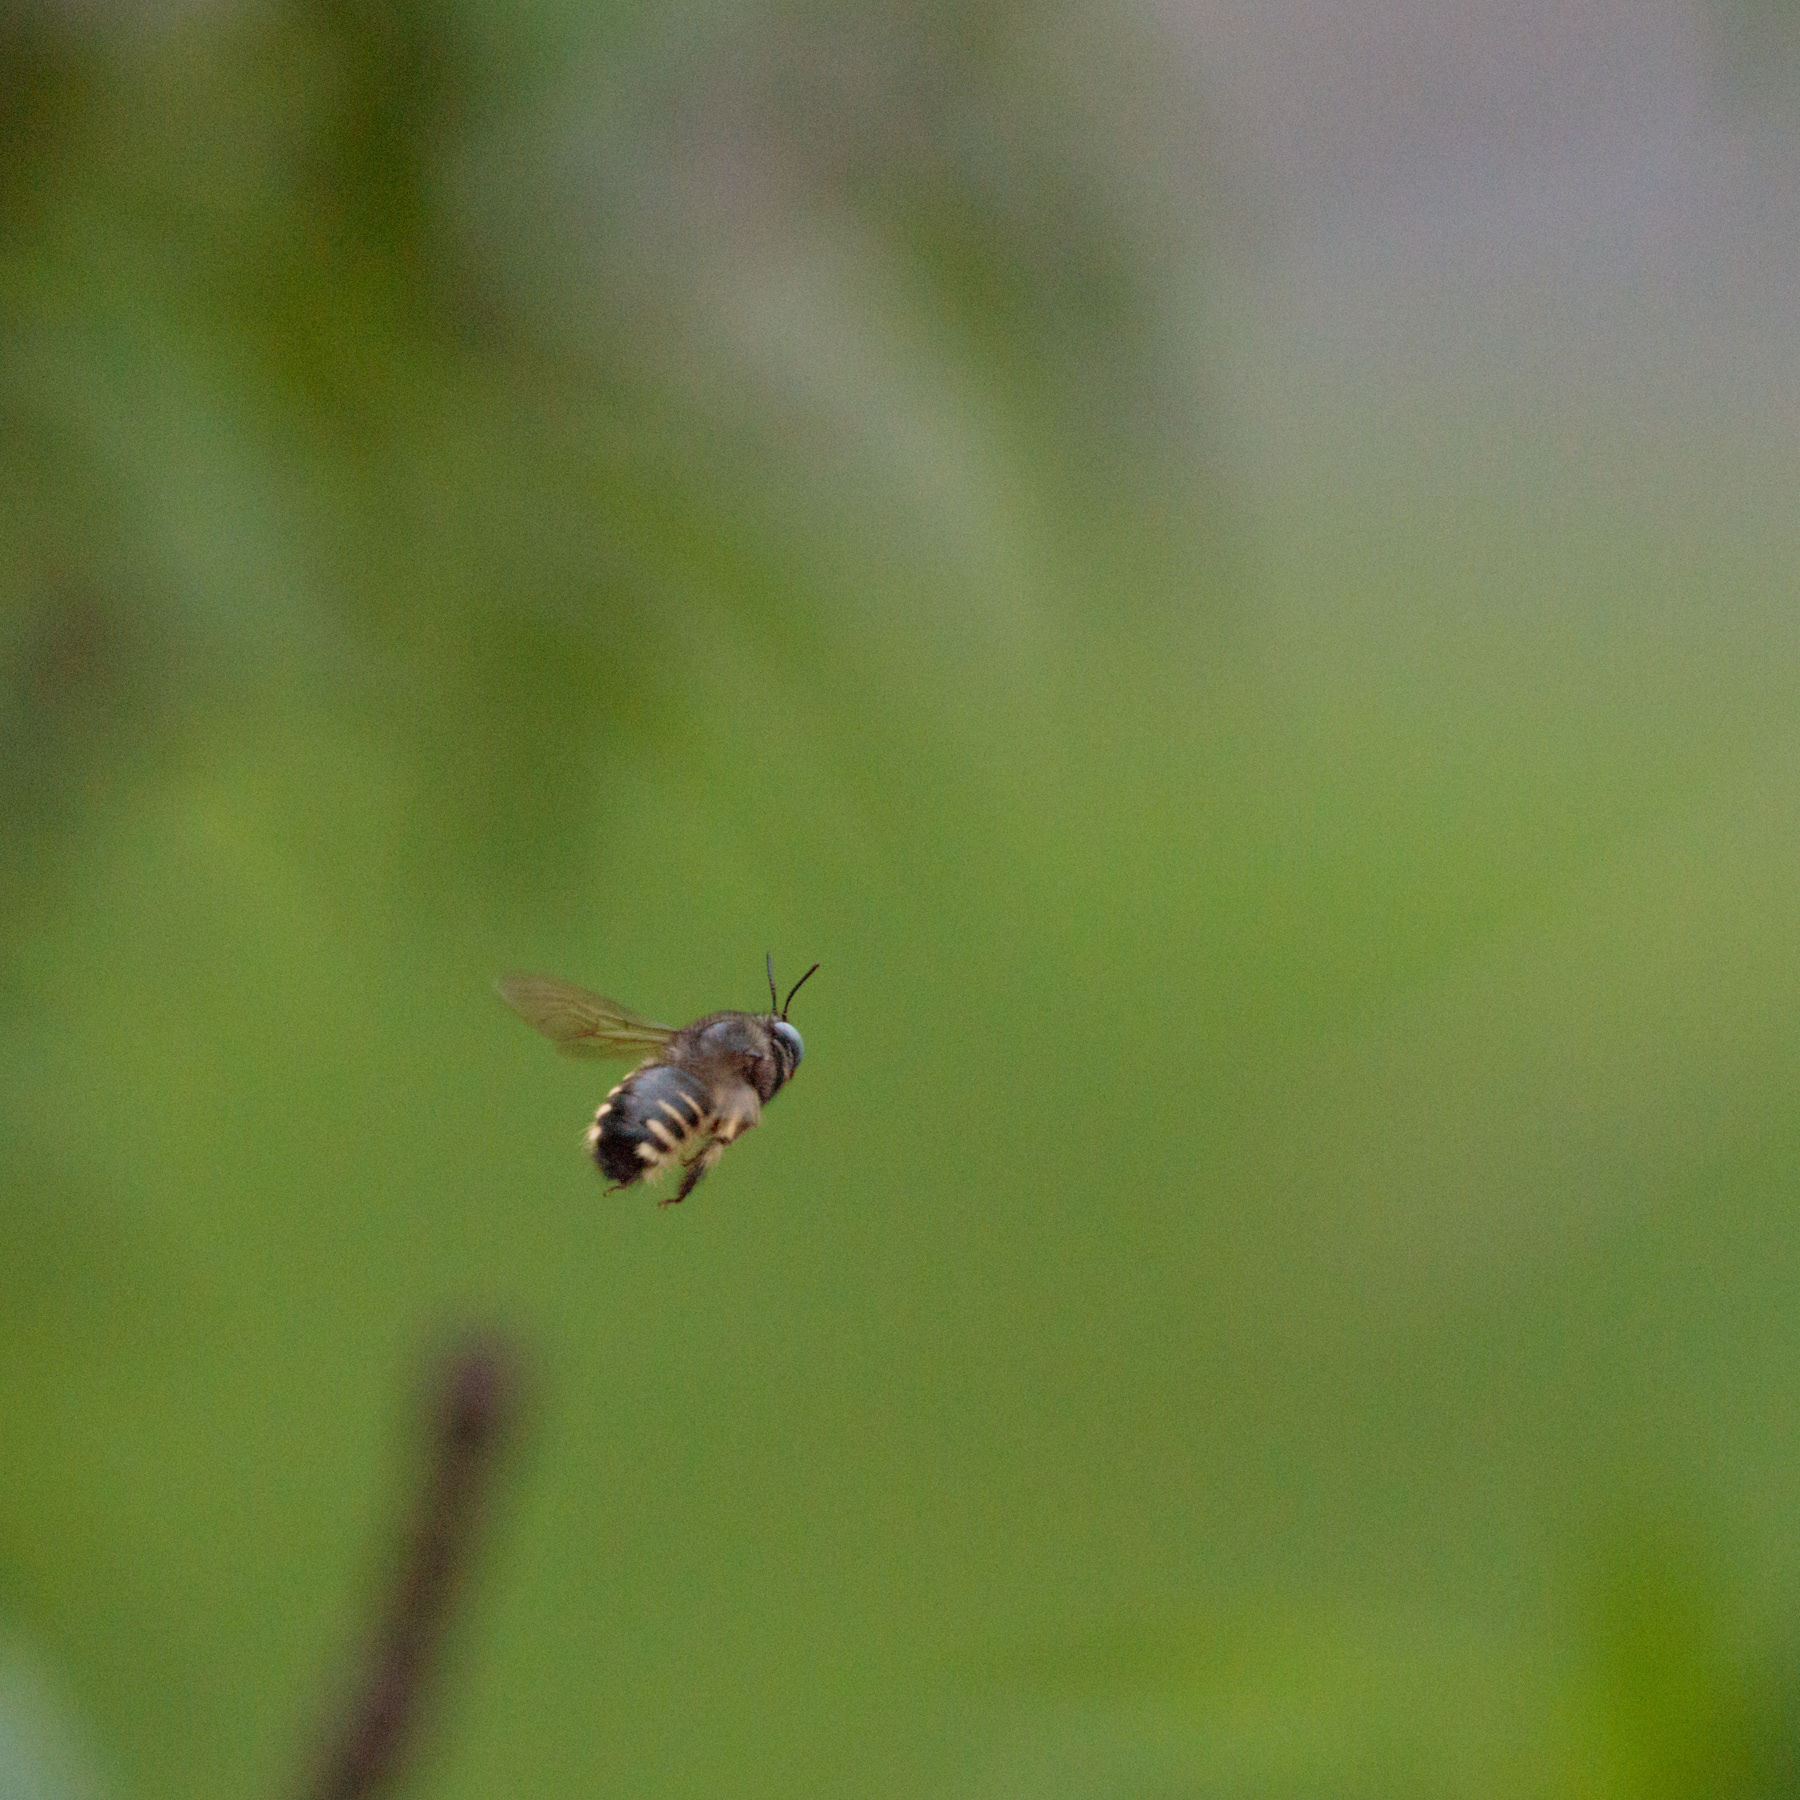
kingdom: Animalia
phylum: Arthropoda
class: Insecta
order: Hymenoptera
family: Apidae
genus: Xylocopa
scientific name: Xylocopa tabaniformis
